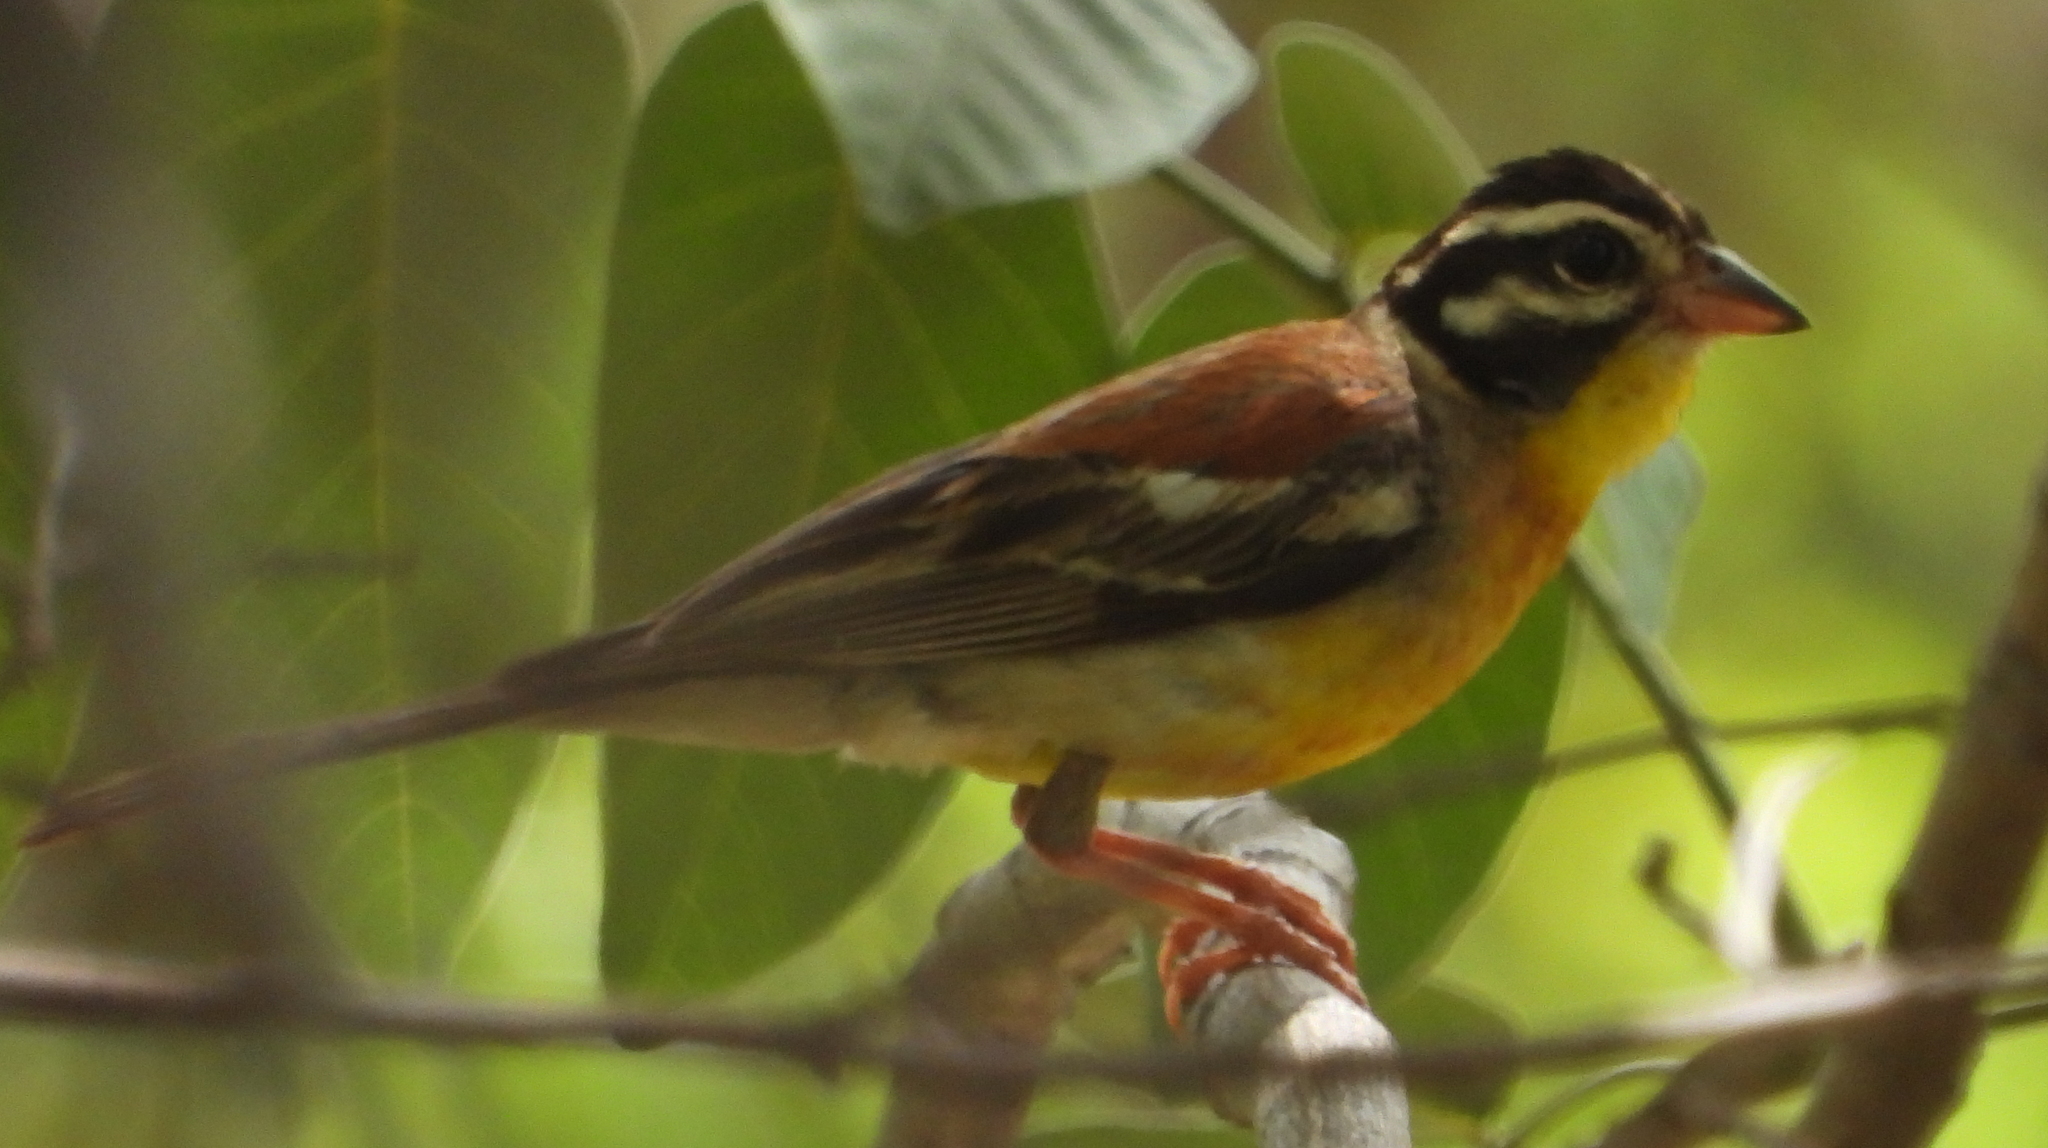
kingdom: Animalia
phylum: Chordata
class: Aves
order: Passeriformes
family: Emberizidae
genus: Emberiza
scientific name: Emberiza flaviventris
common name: Golden-breasted bunting
